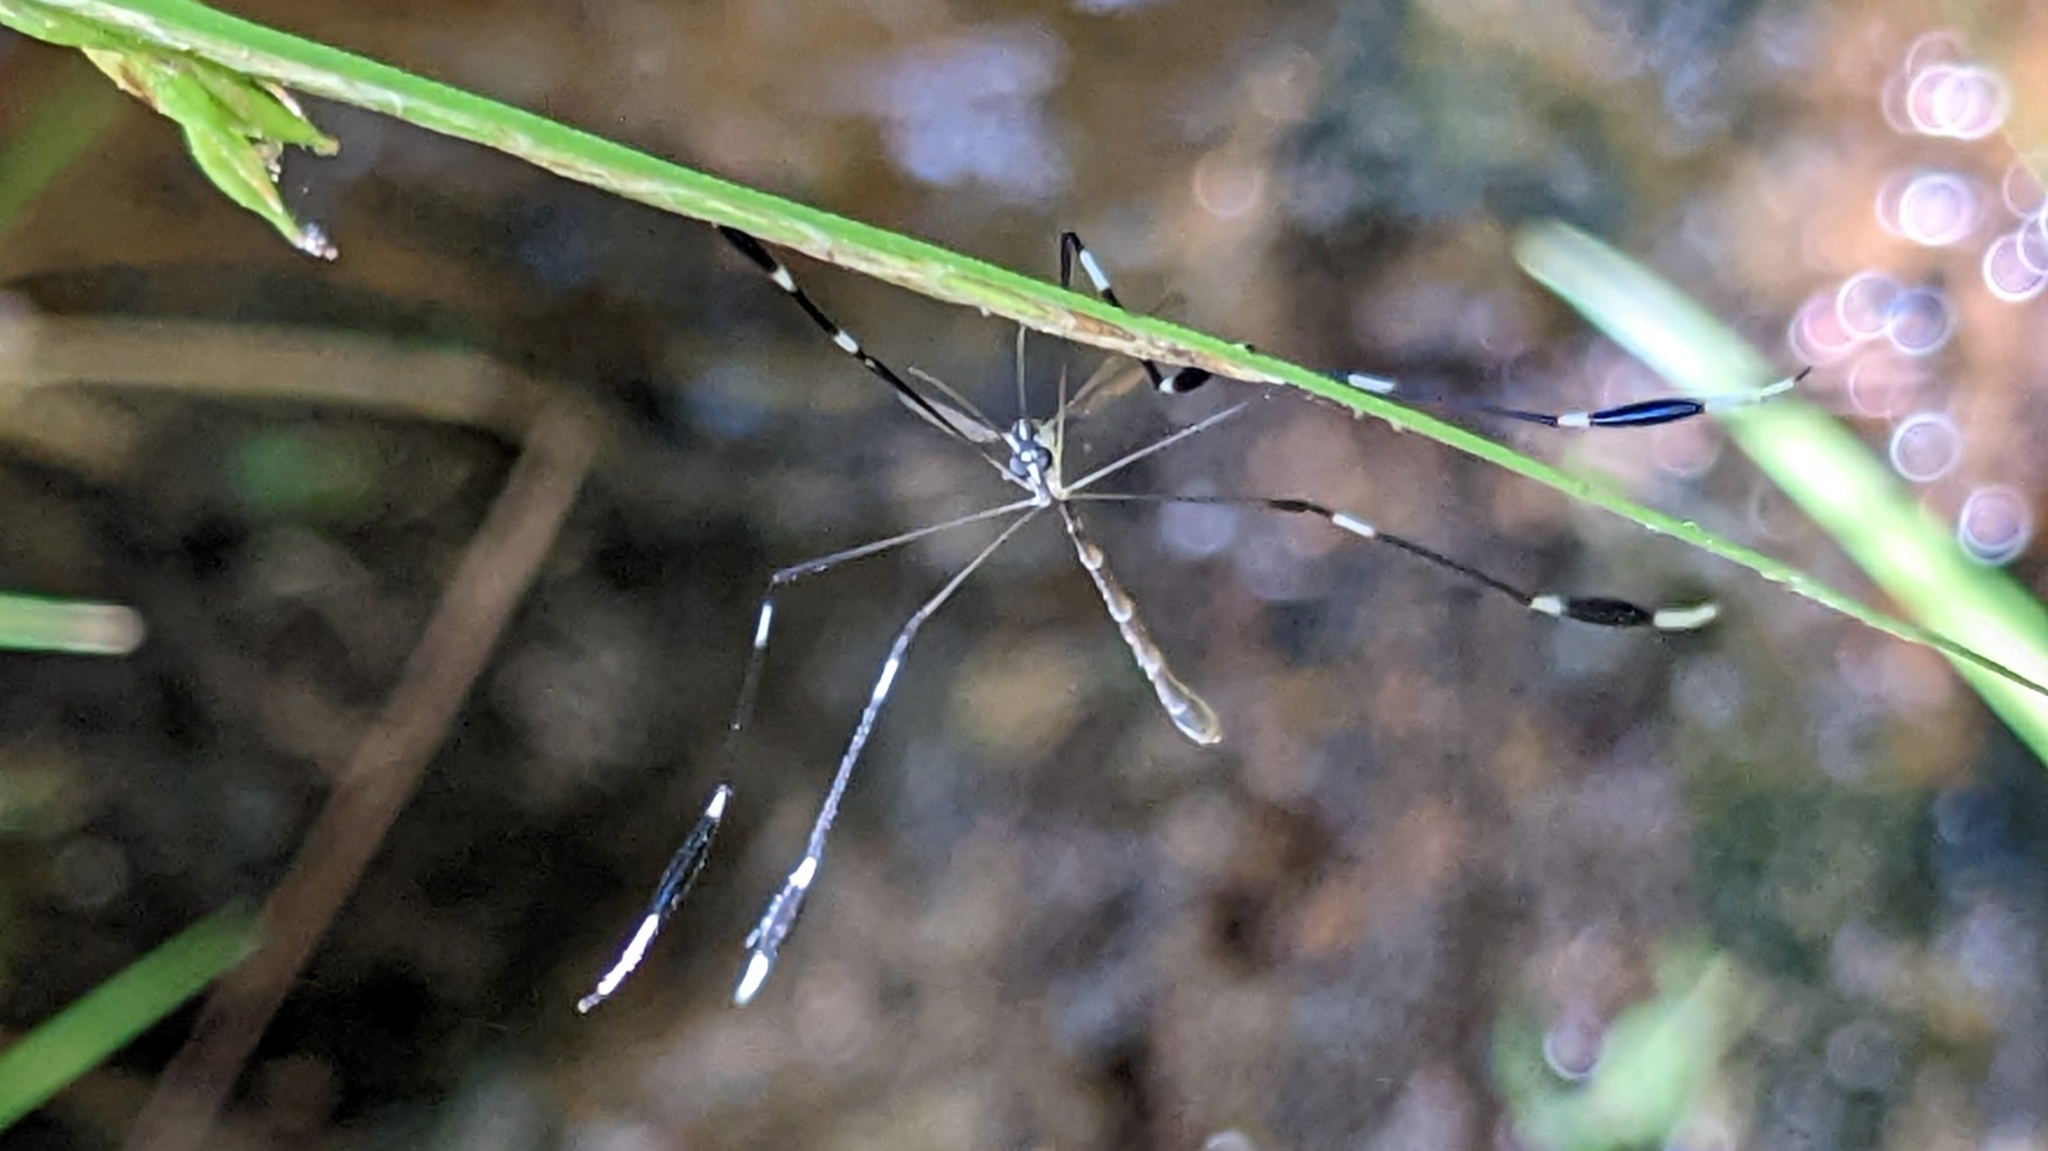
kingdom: Animalia
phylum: Arthropoda
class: Insecta
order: Diptera
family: Ptychopteridae
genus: Bittacomorpha
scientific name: Bittacomorpha clavipes
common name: Eastern phantom crane fly
